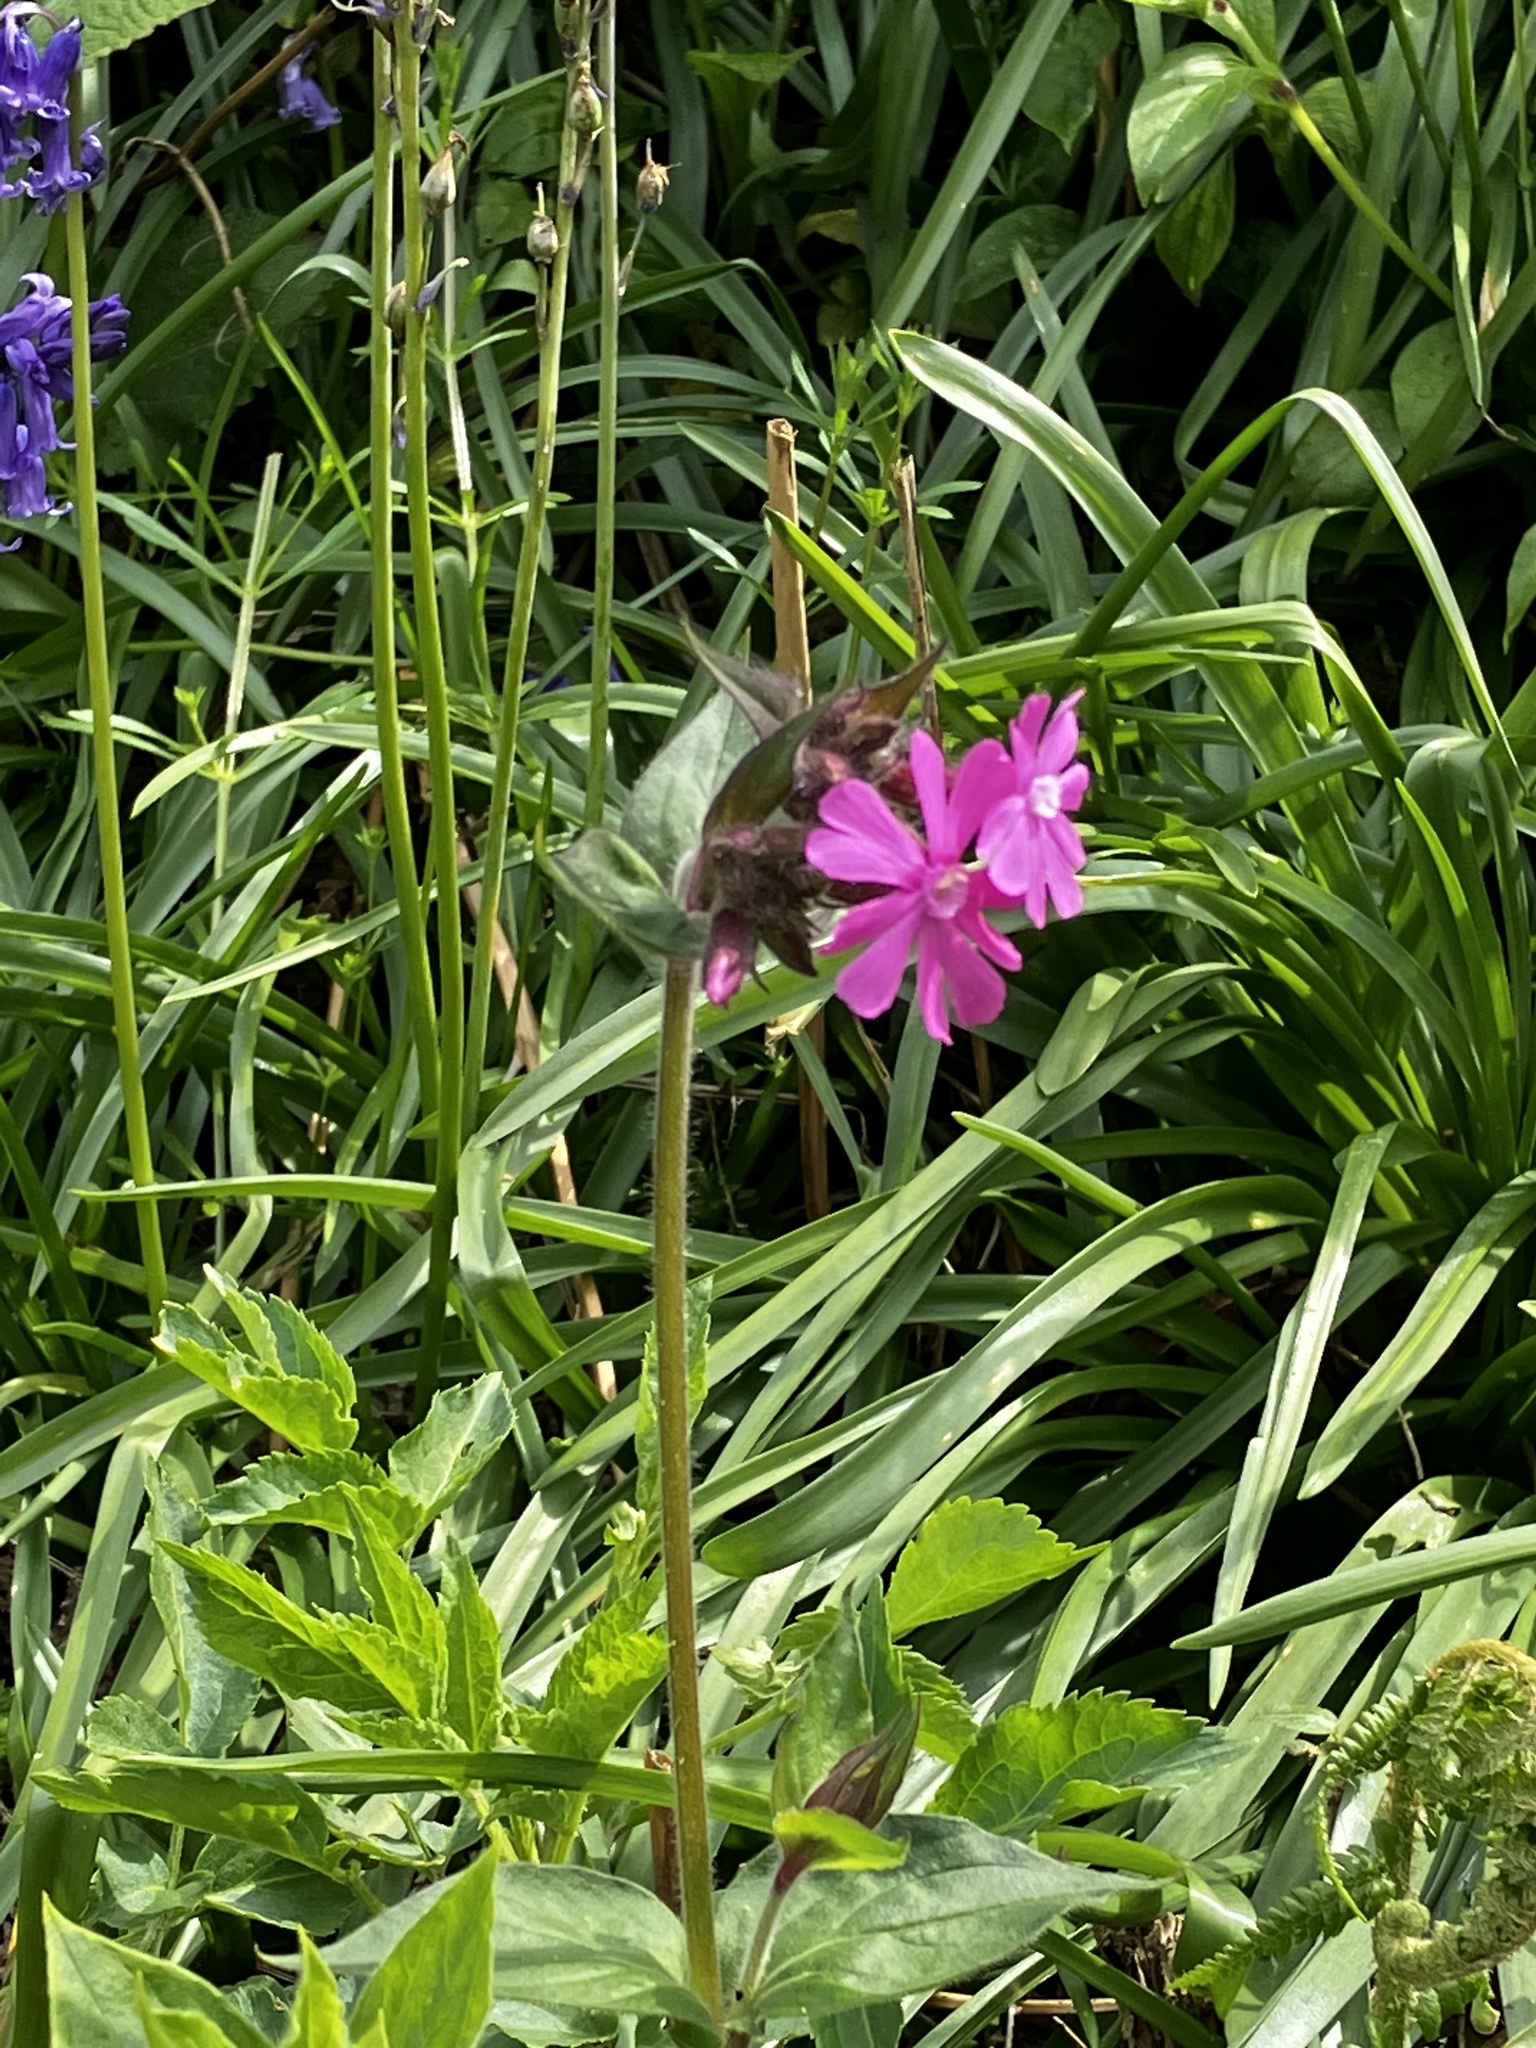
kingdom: Plantae
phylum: Tracheophyta
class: Magnoliopsida
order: Caryophyllales
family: Caryophyllaceae
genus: Silene
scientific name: Silene dioica
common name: Red campion
